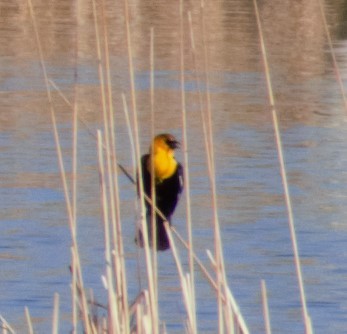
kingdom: Animalia
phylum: Chordata
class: Aves
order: Passeriformes
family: Icteridae
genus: Xanthocephalus
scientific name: Xanthocephalus xanthocephalus
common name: Yellow-headed blackbird
